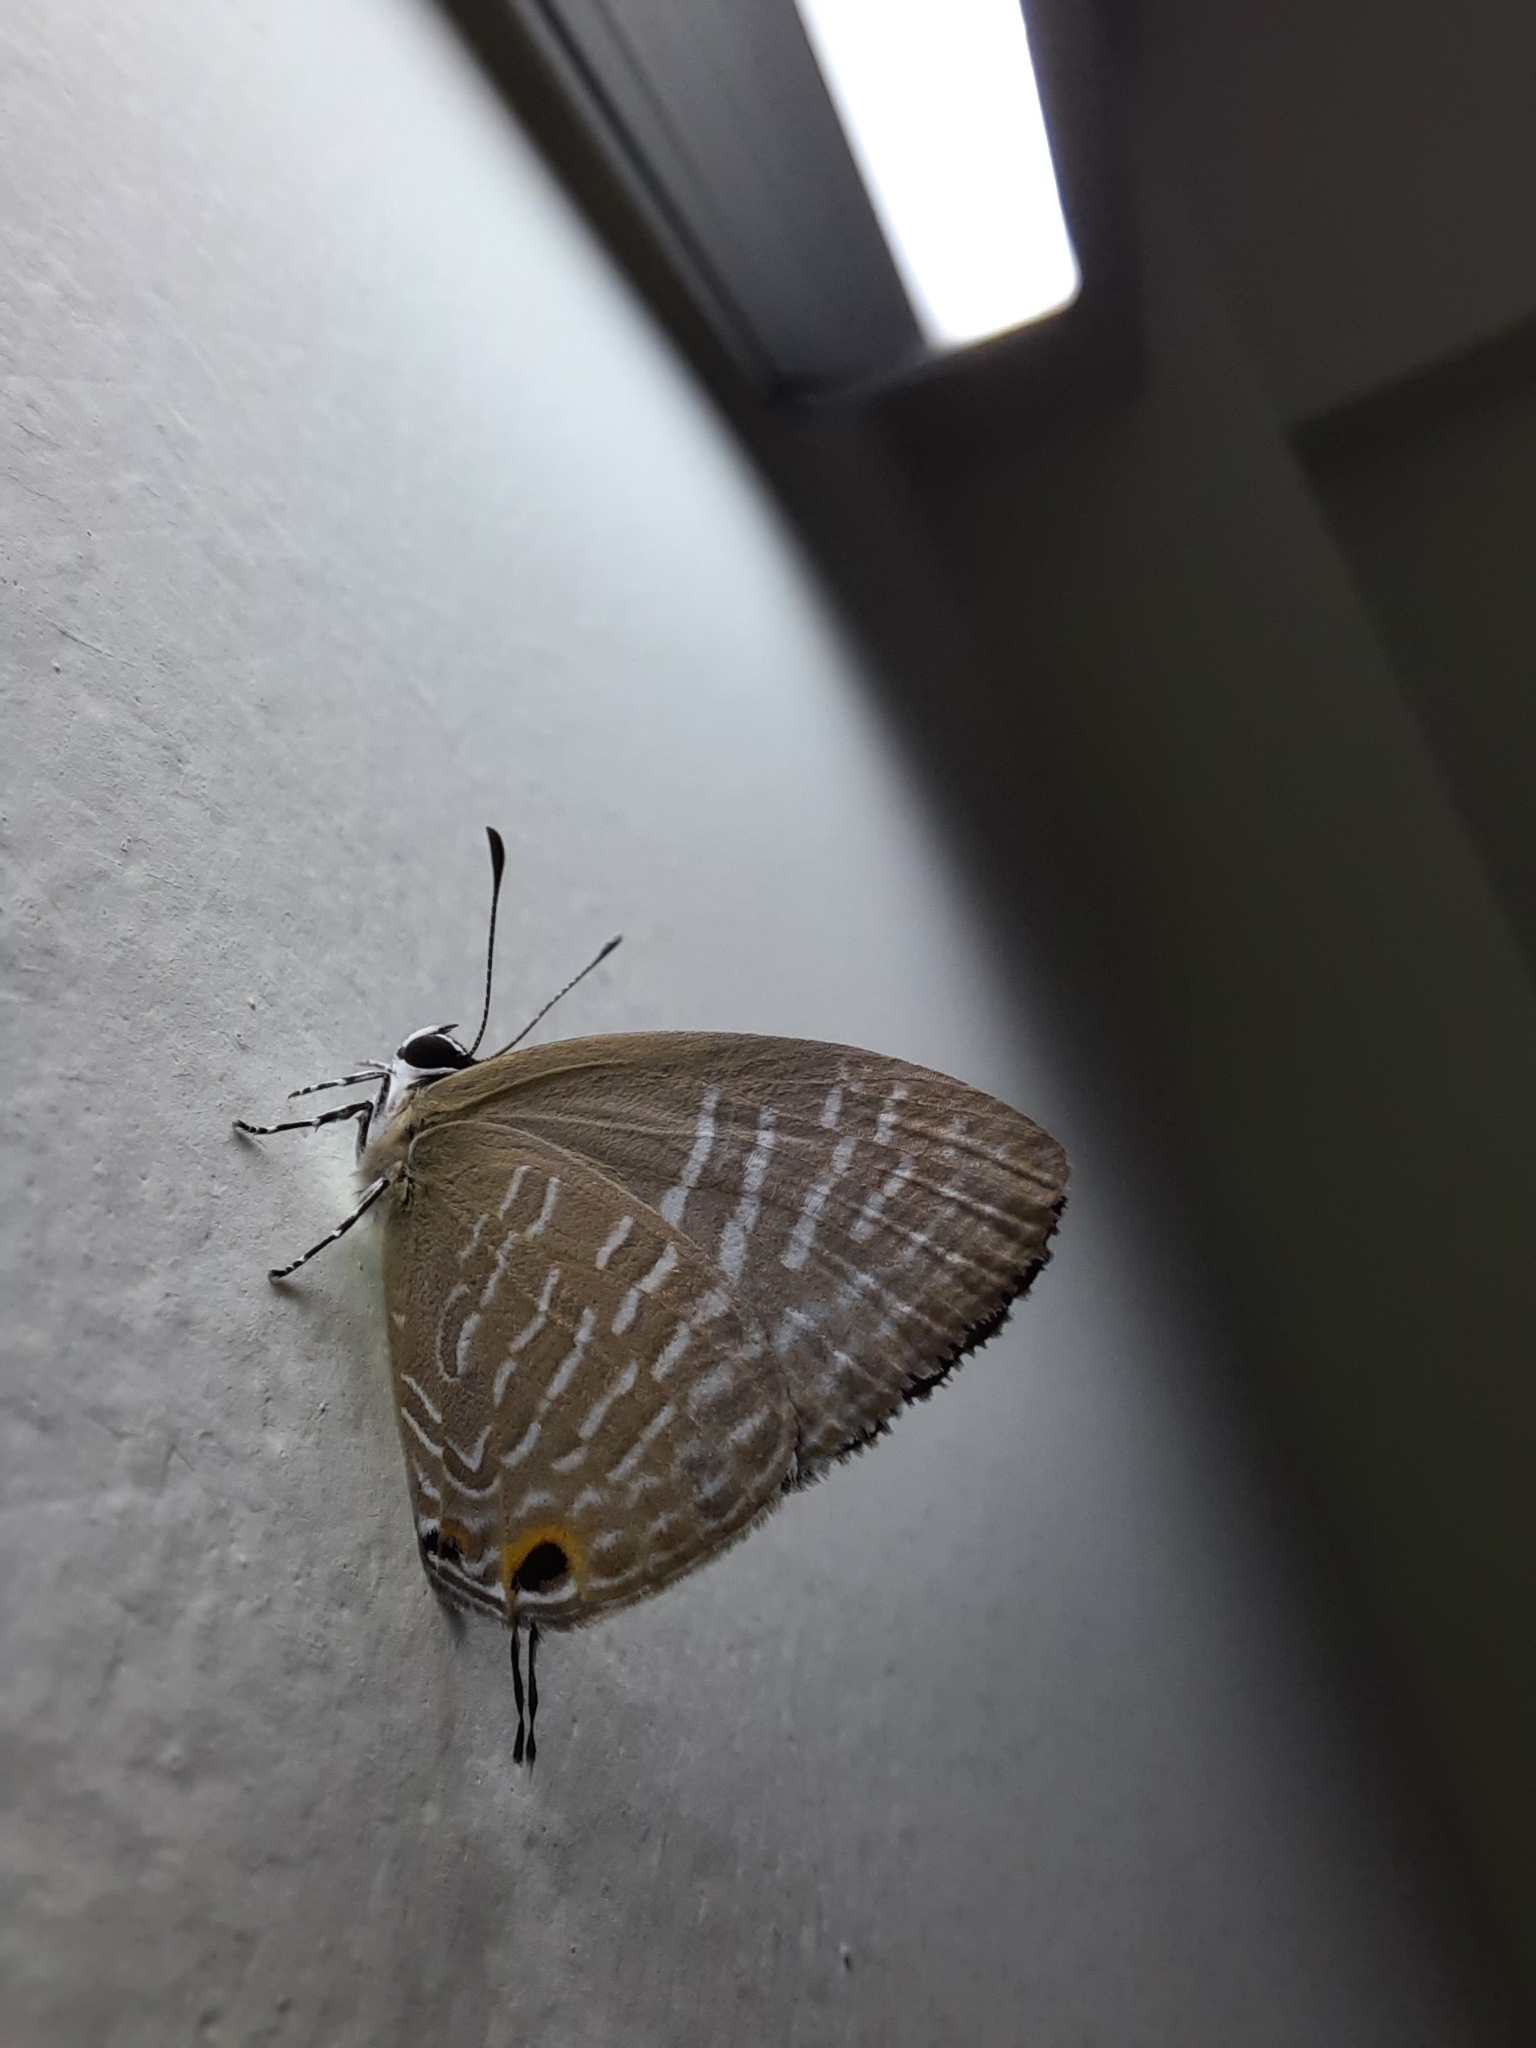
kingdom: Animalia
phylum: Arthropoda
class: Insecta
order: Lepidoptera
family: Lycaenidae
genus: Jamides
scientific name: Jamides alecto
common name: Metallic cerulean
